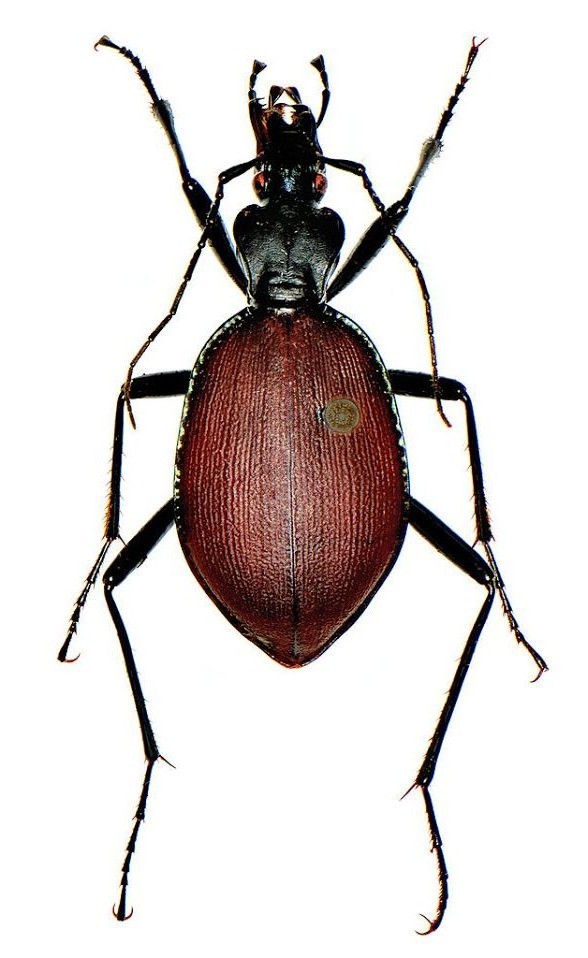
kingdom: Animalia
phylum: Arthropoda
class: Insecta
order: Coleoptera
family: Carabidae
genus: Scaphinotus
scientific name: Scaphinotus angusticollis
